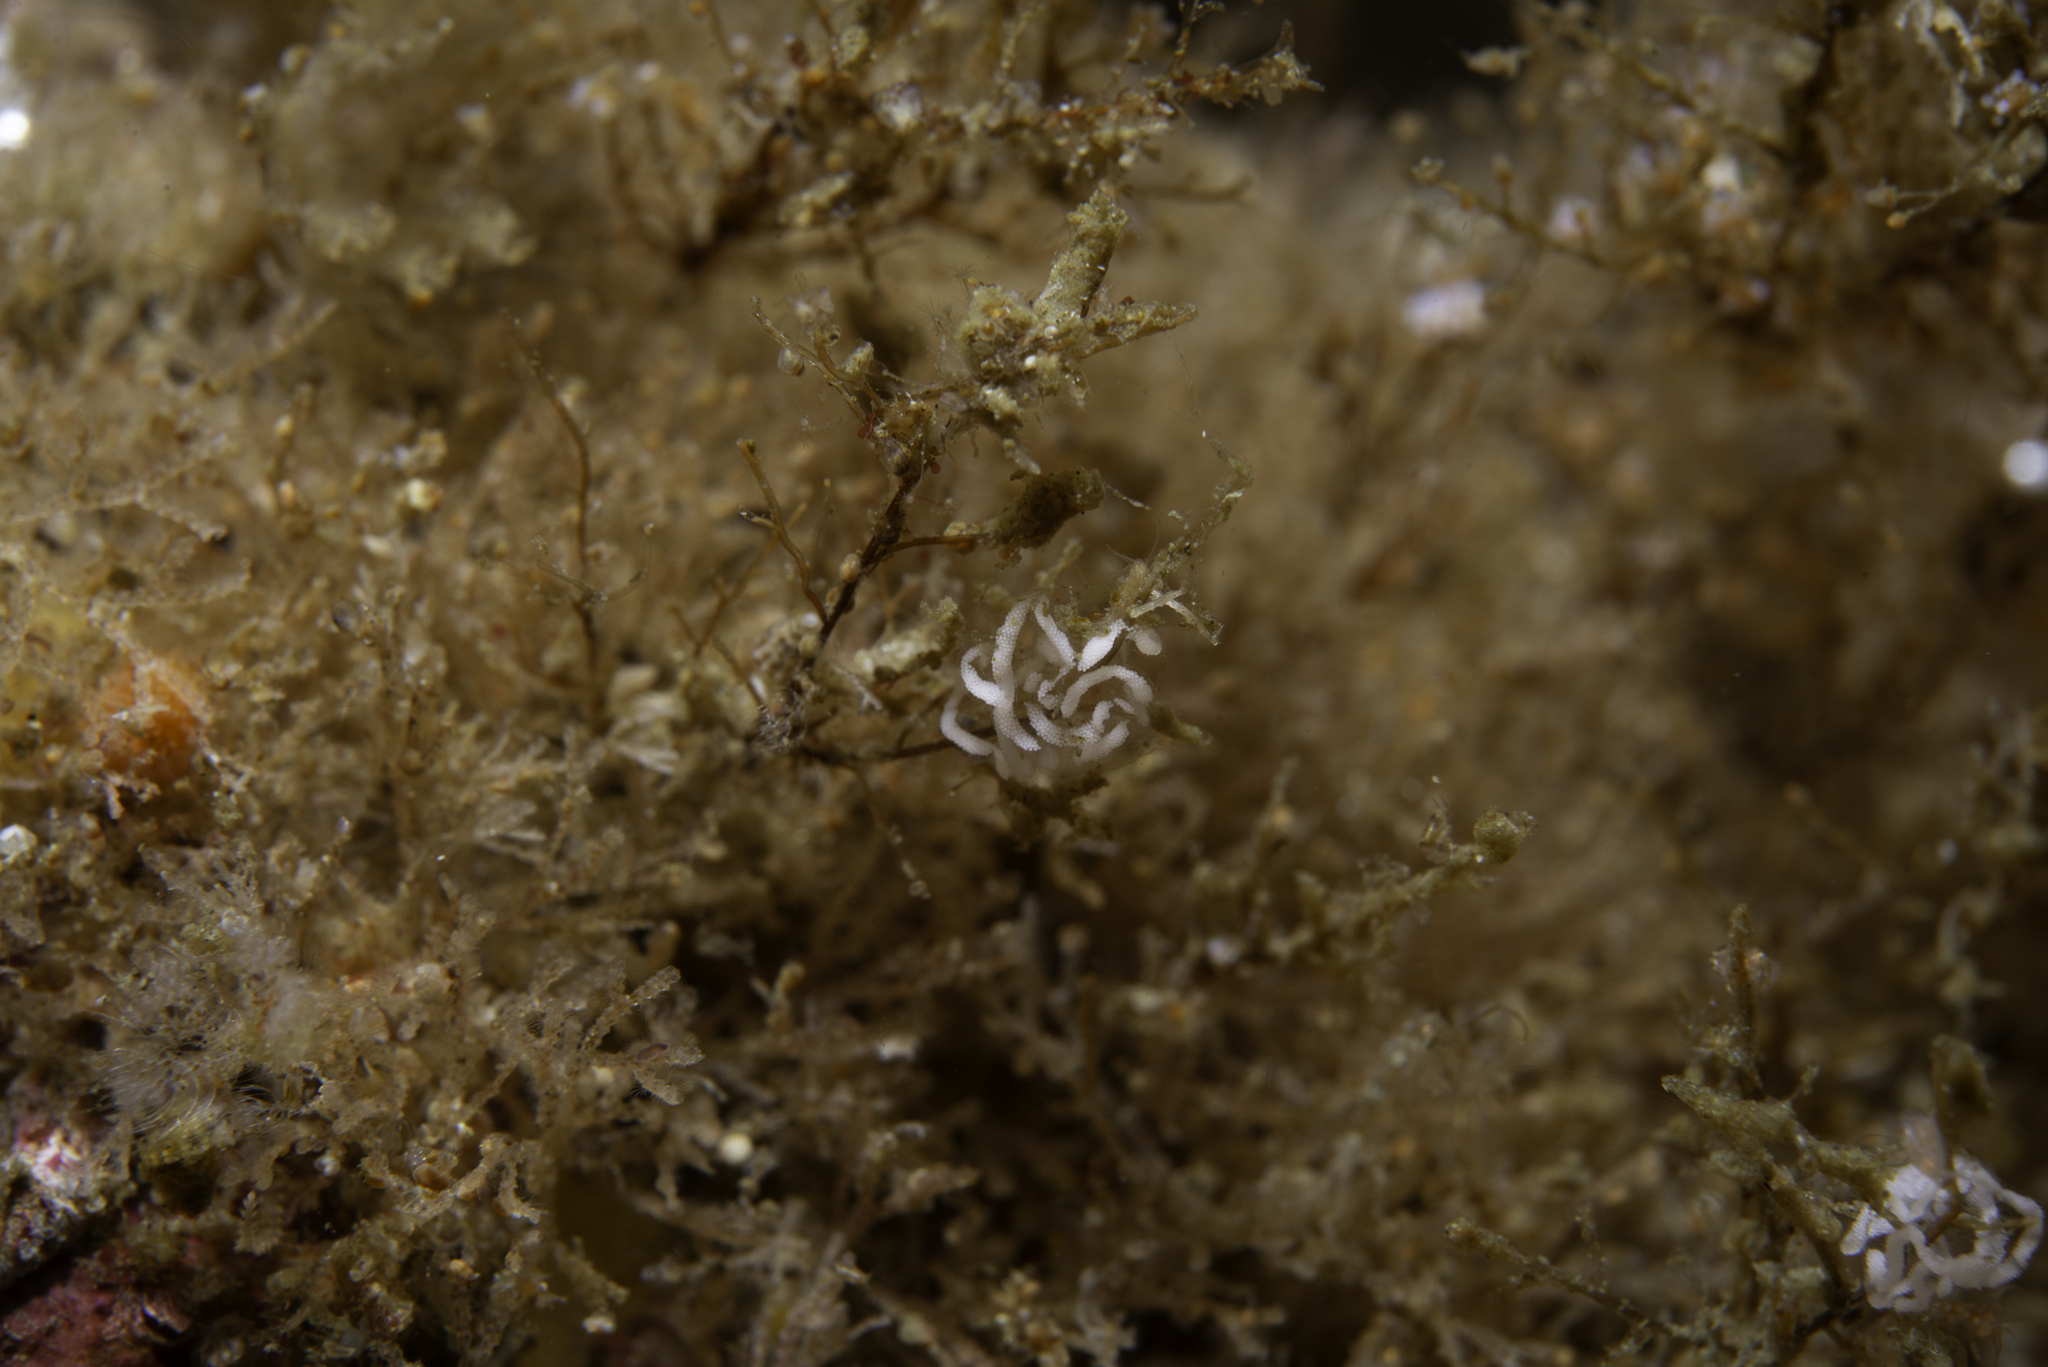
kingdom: Animalia
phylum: Mollusca
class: Gastropoda
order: Nudibranchia
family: Flabellinidae
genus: Edmundsella
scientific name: Edmundsella pedata
